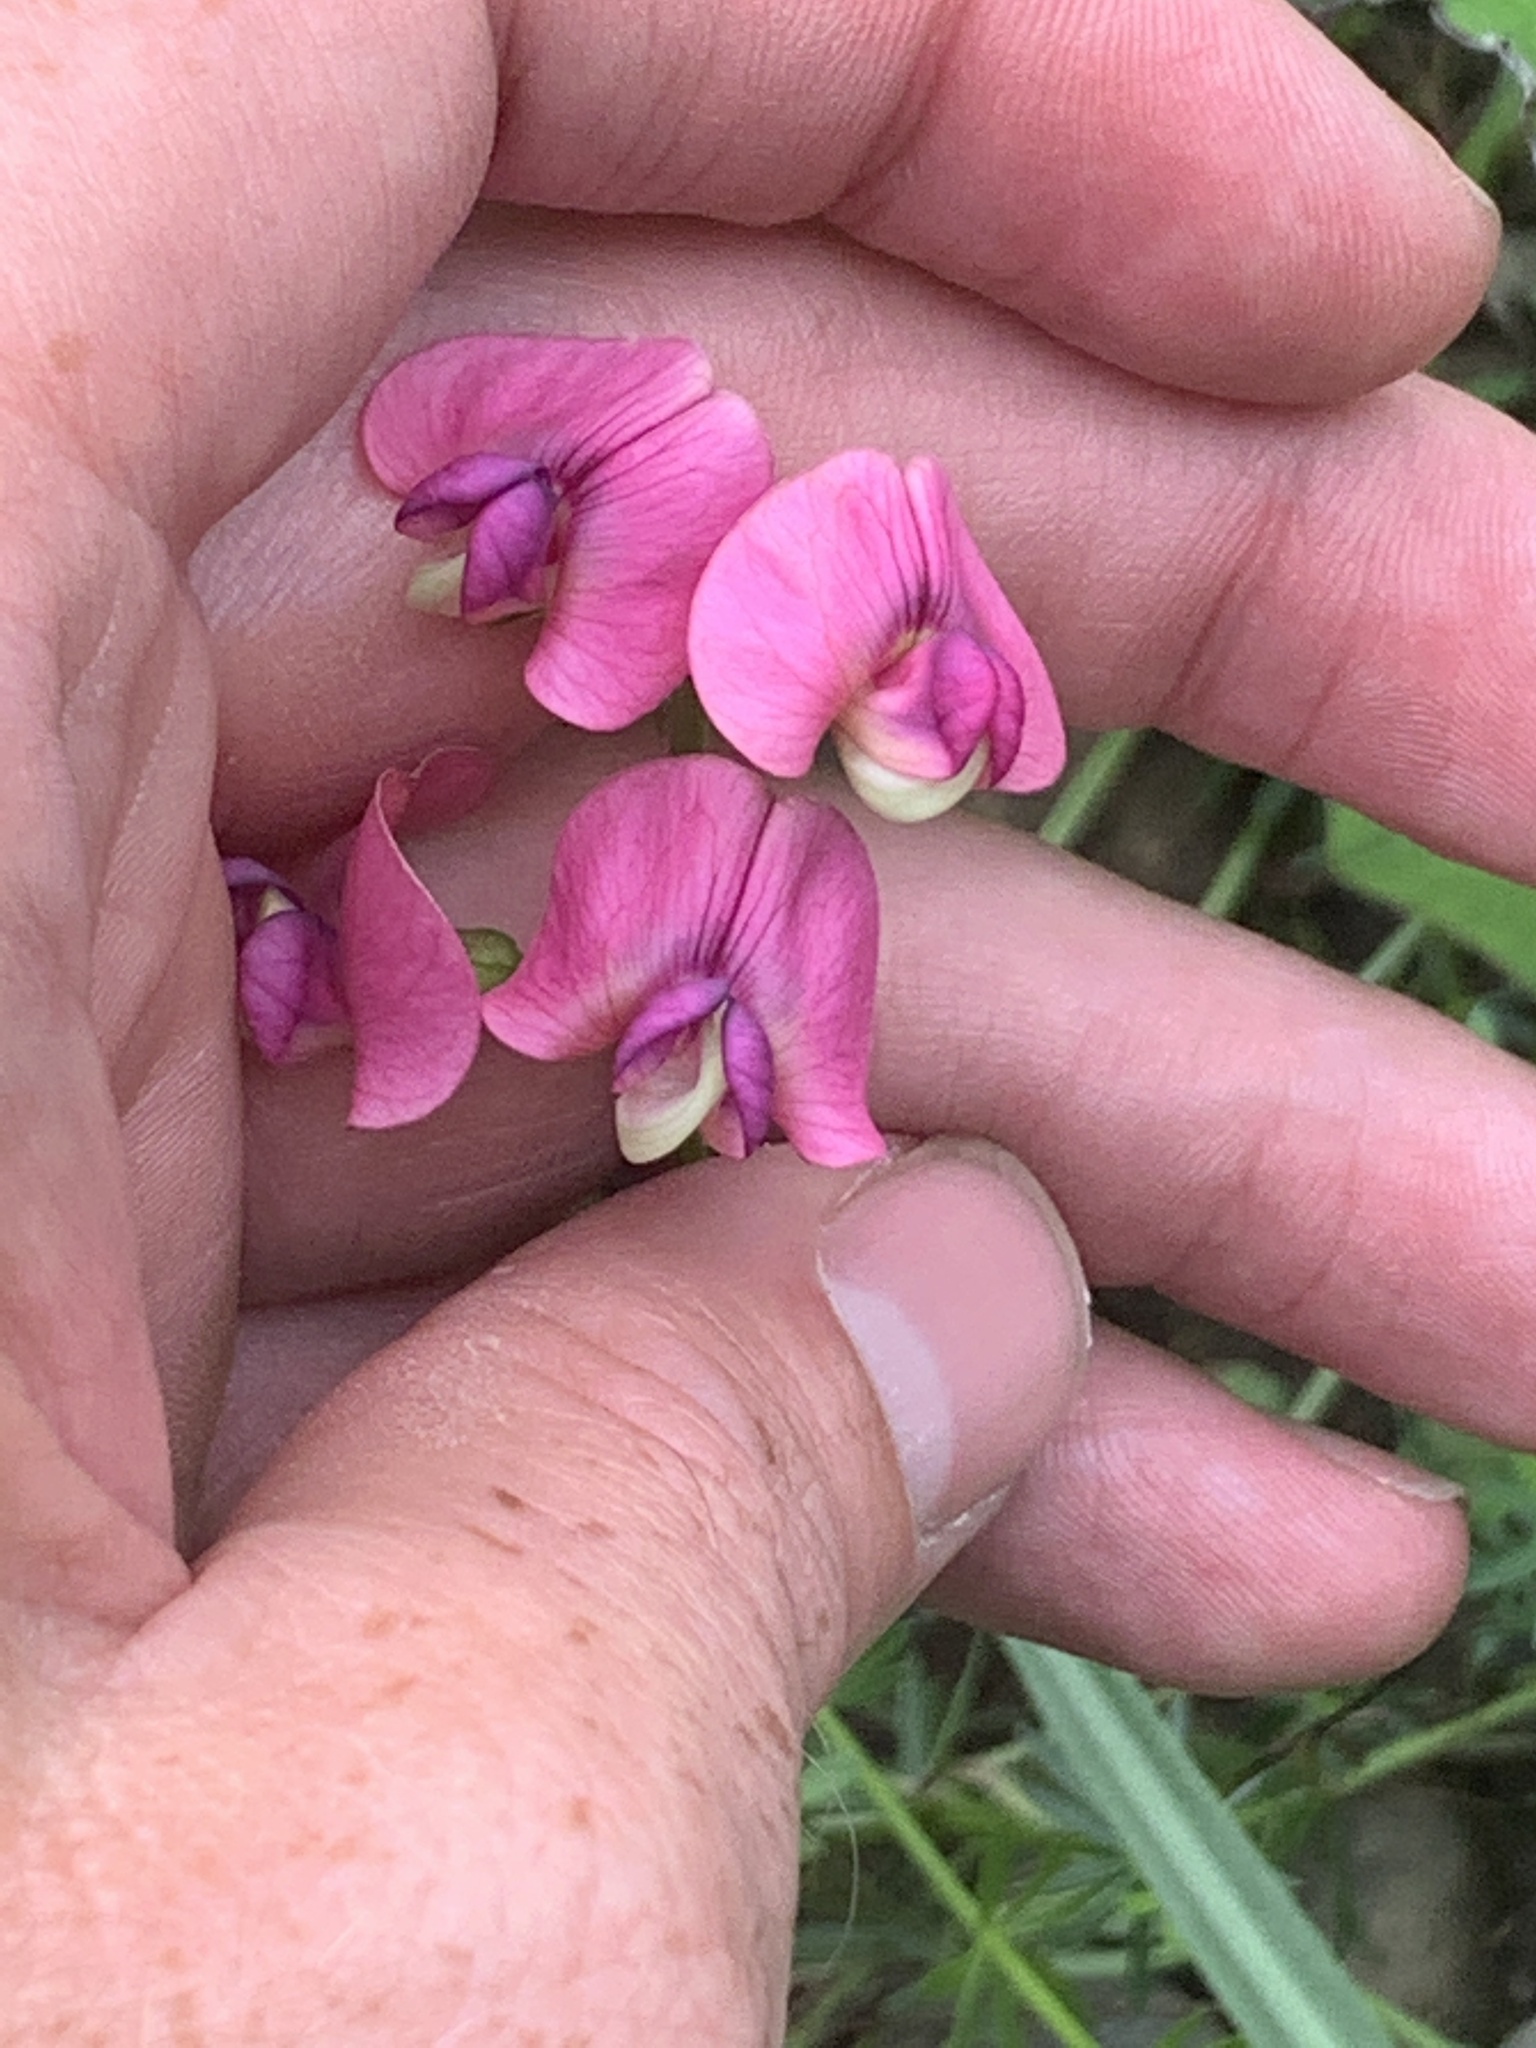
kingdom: Plantae
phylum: Tracheophyta
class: Magnoliopsida
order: Fabales
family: Fabaceae
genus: Lathyrus
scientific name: Lathyrus sylvestris
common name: Flat pea
